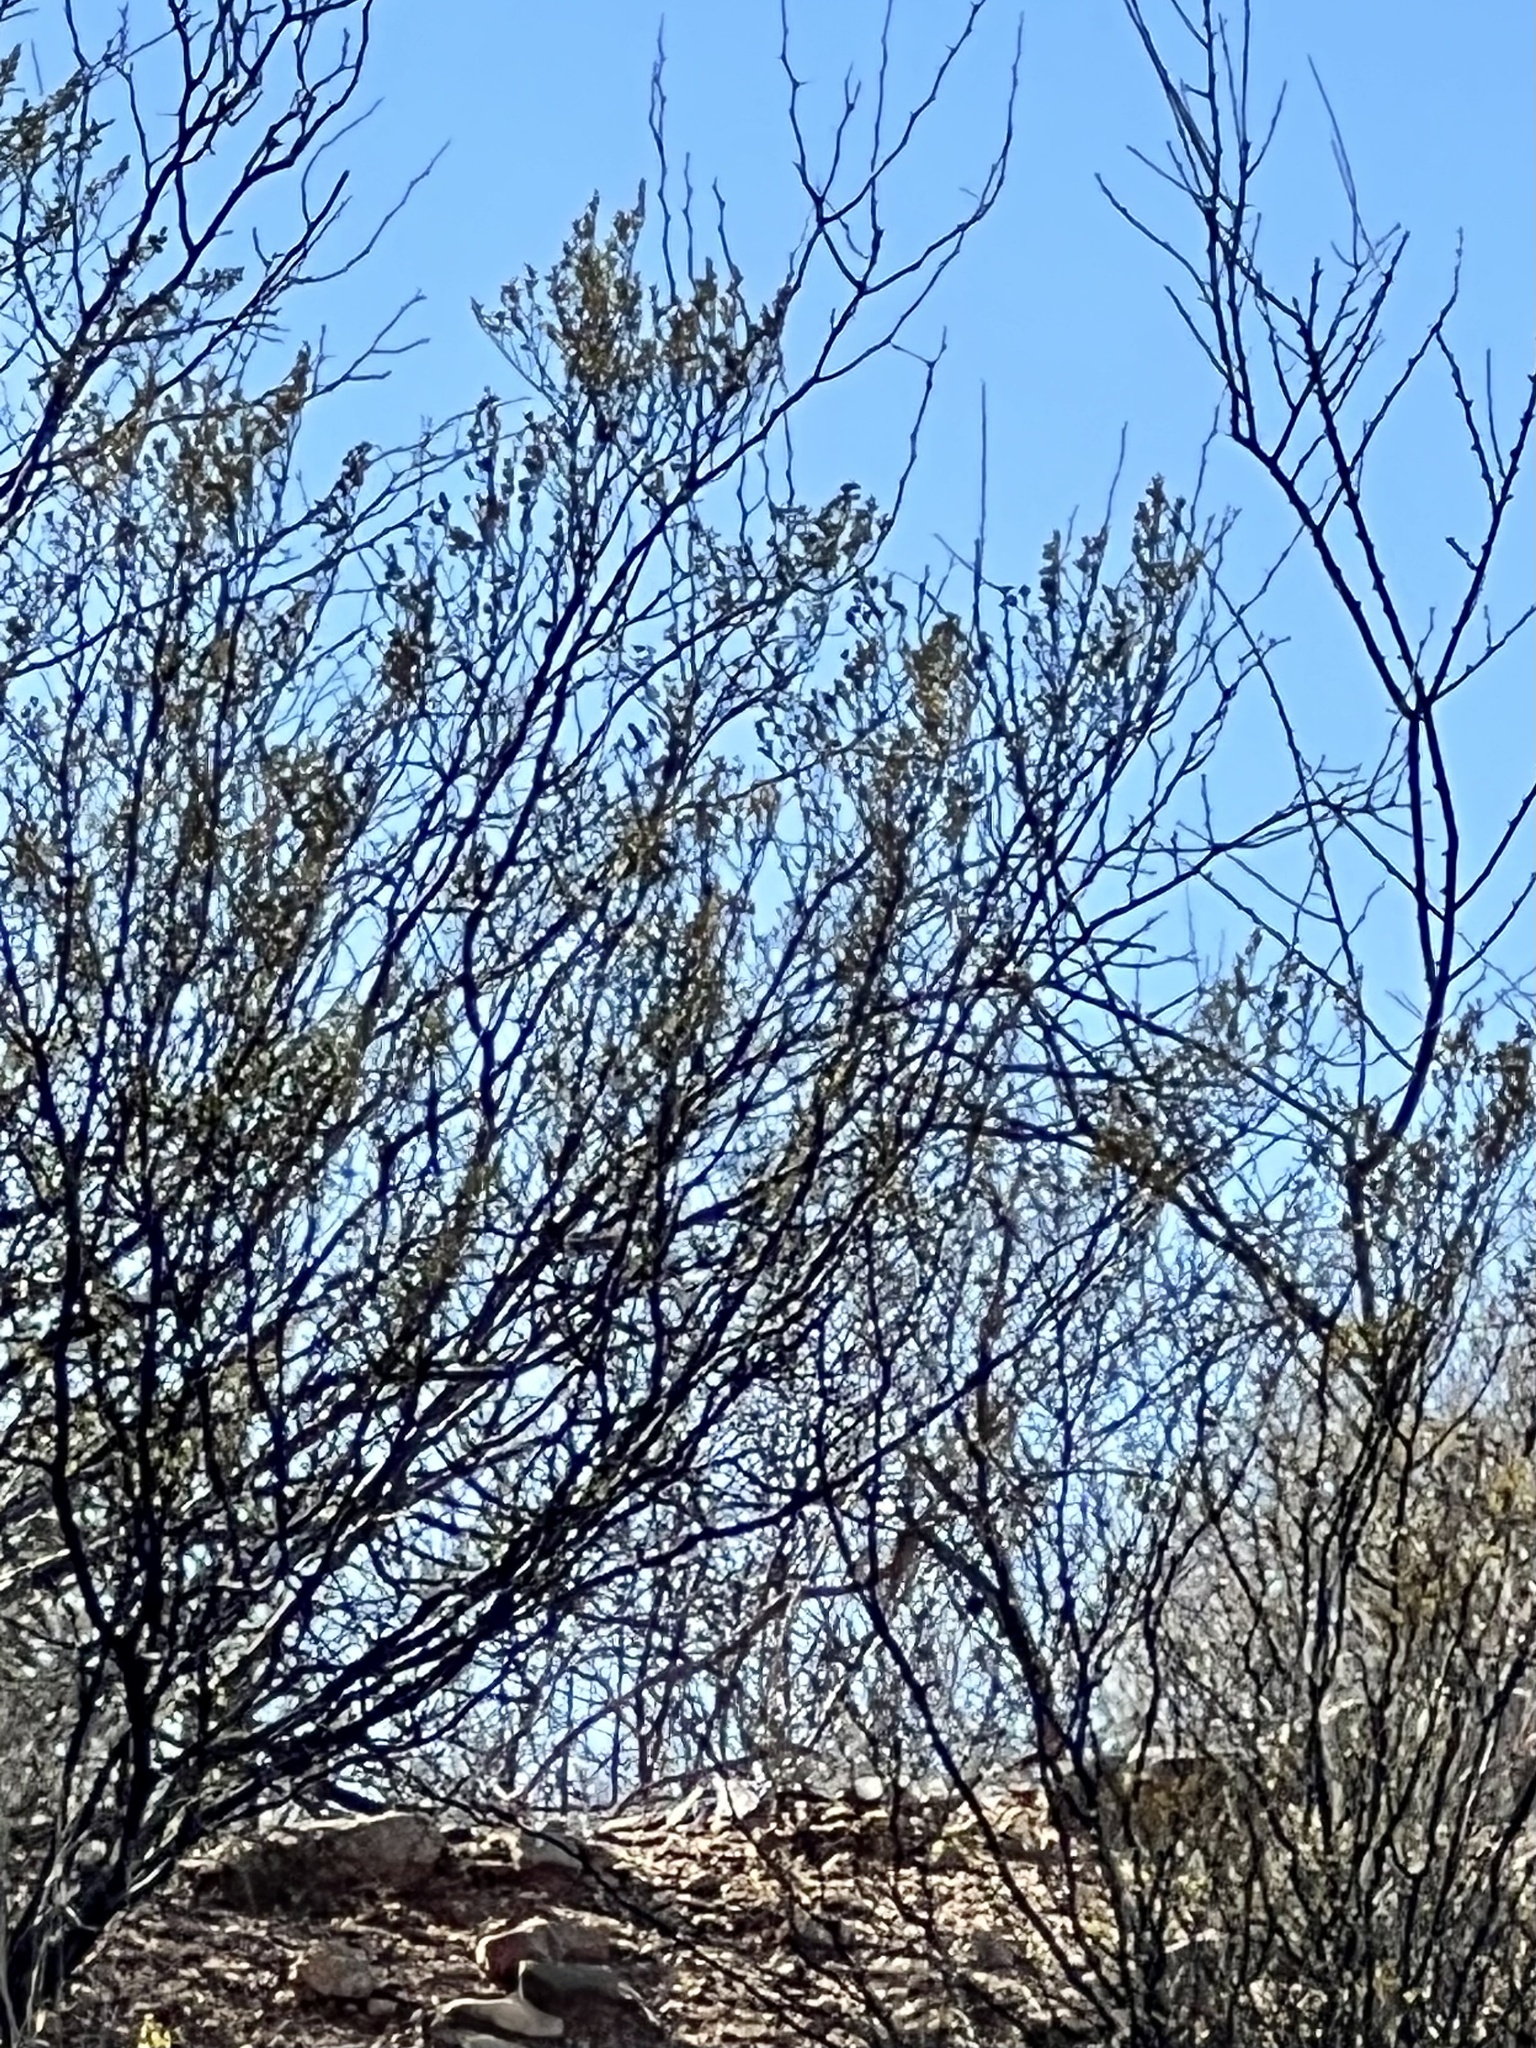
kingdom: Plantae
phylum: Tracheophyta
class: Magnoliopsida
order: Zygophyllales
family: Zygophyllaceae
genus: Larrea
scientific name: Larrea tridentata
